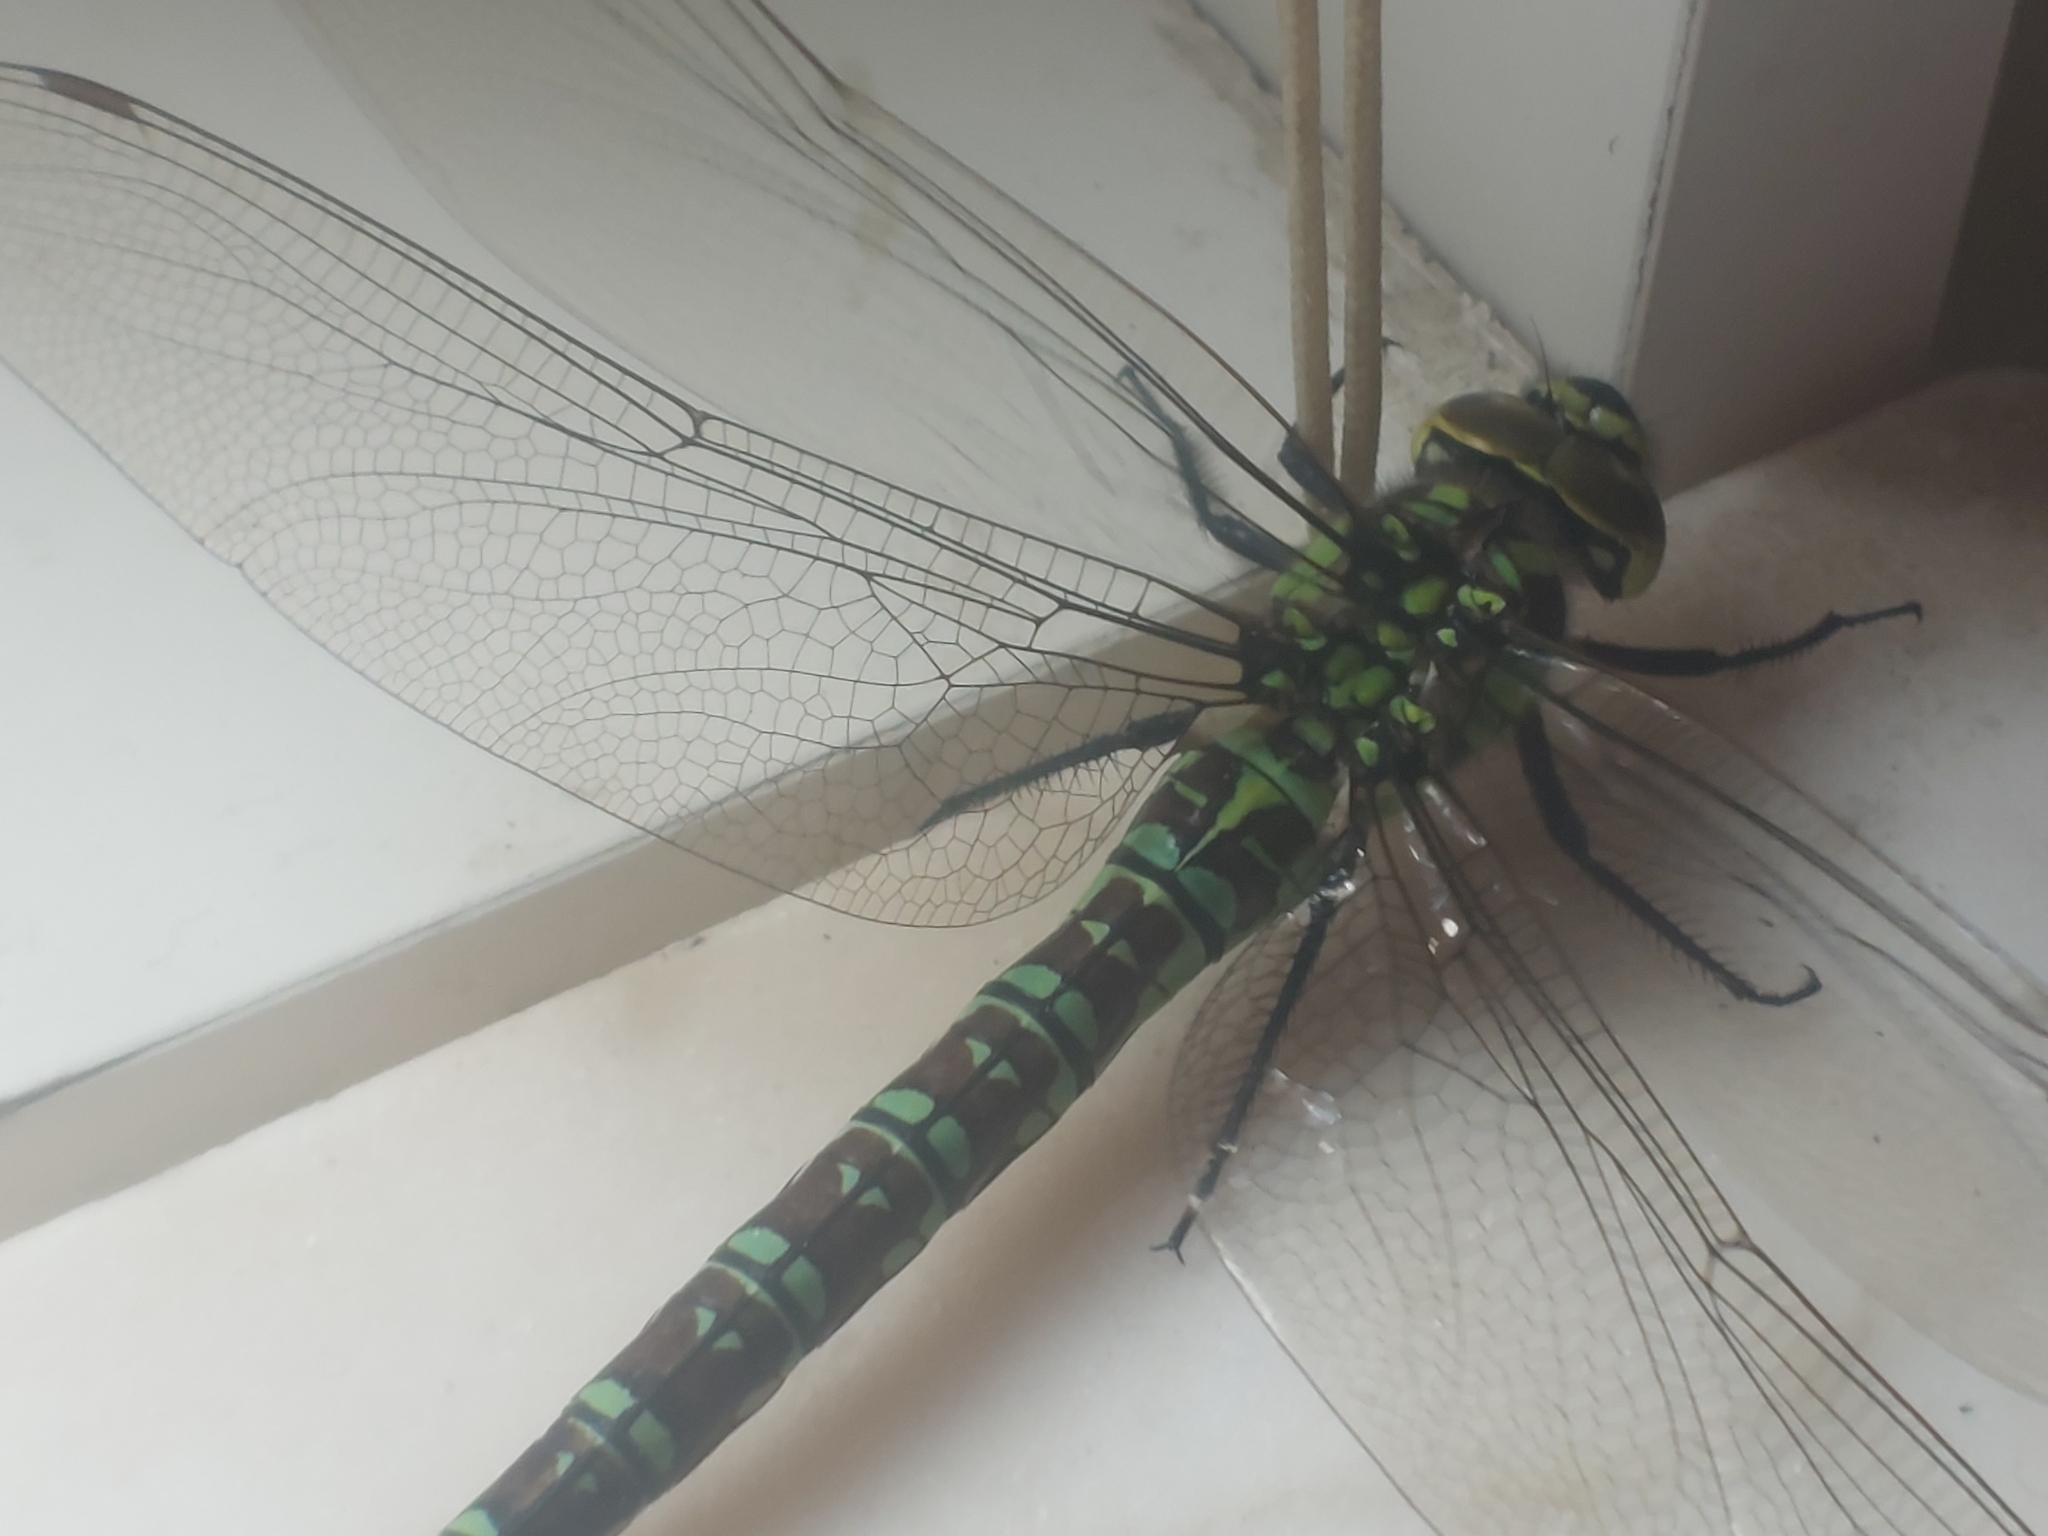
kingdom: Animalia
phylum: Arthropoda
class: Insecta
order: Odonata
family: Aeshnidae
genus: Aeshna
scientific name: Aeshna cyanea
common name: Southern hawker
